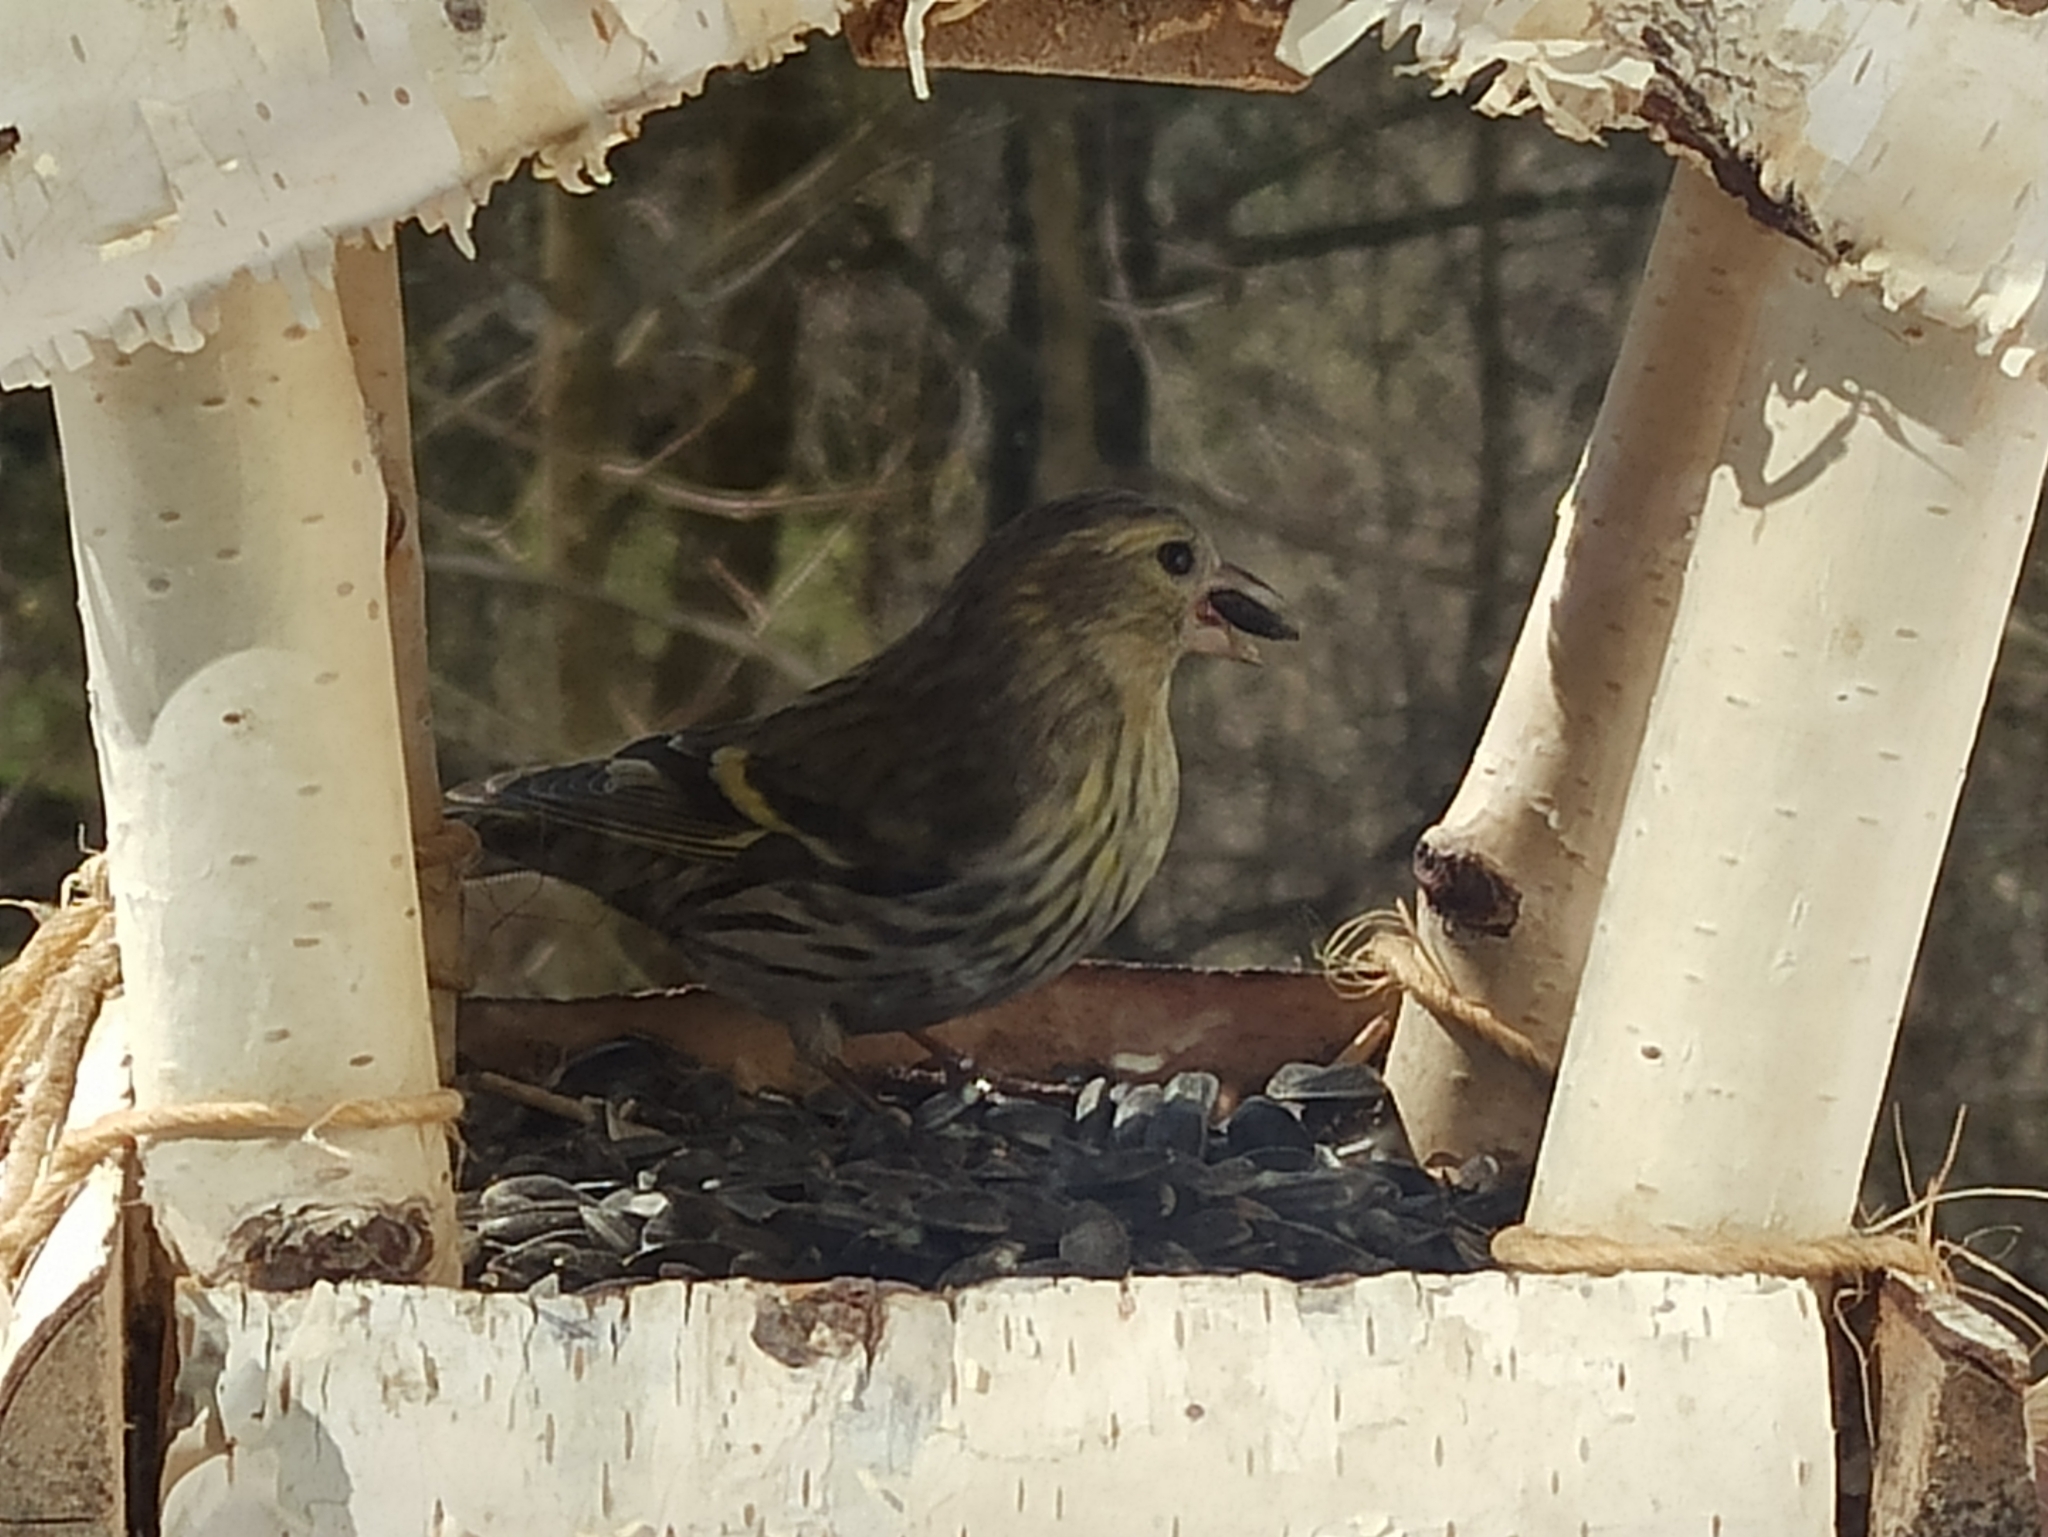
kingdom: Animalia
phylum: Chordata
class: Aves
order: Passeriformes
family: Fringillidae
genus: Spinus
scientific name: Spinus spinus
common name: Eurasian siskin
